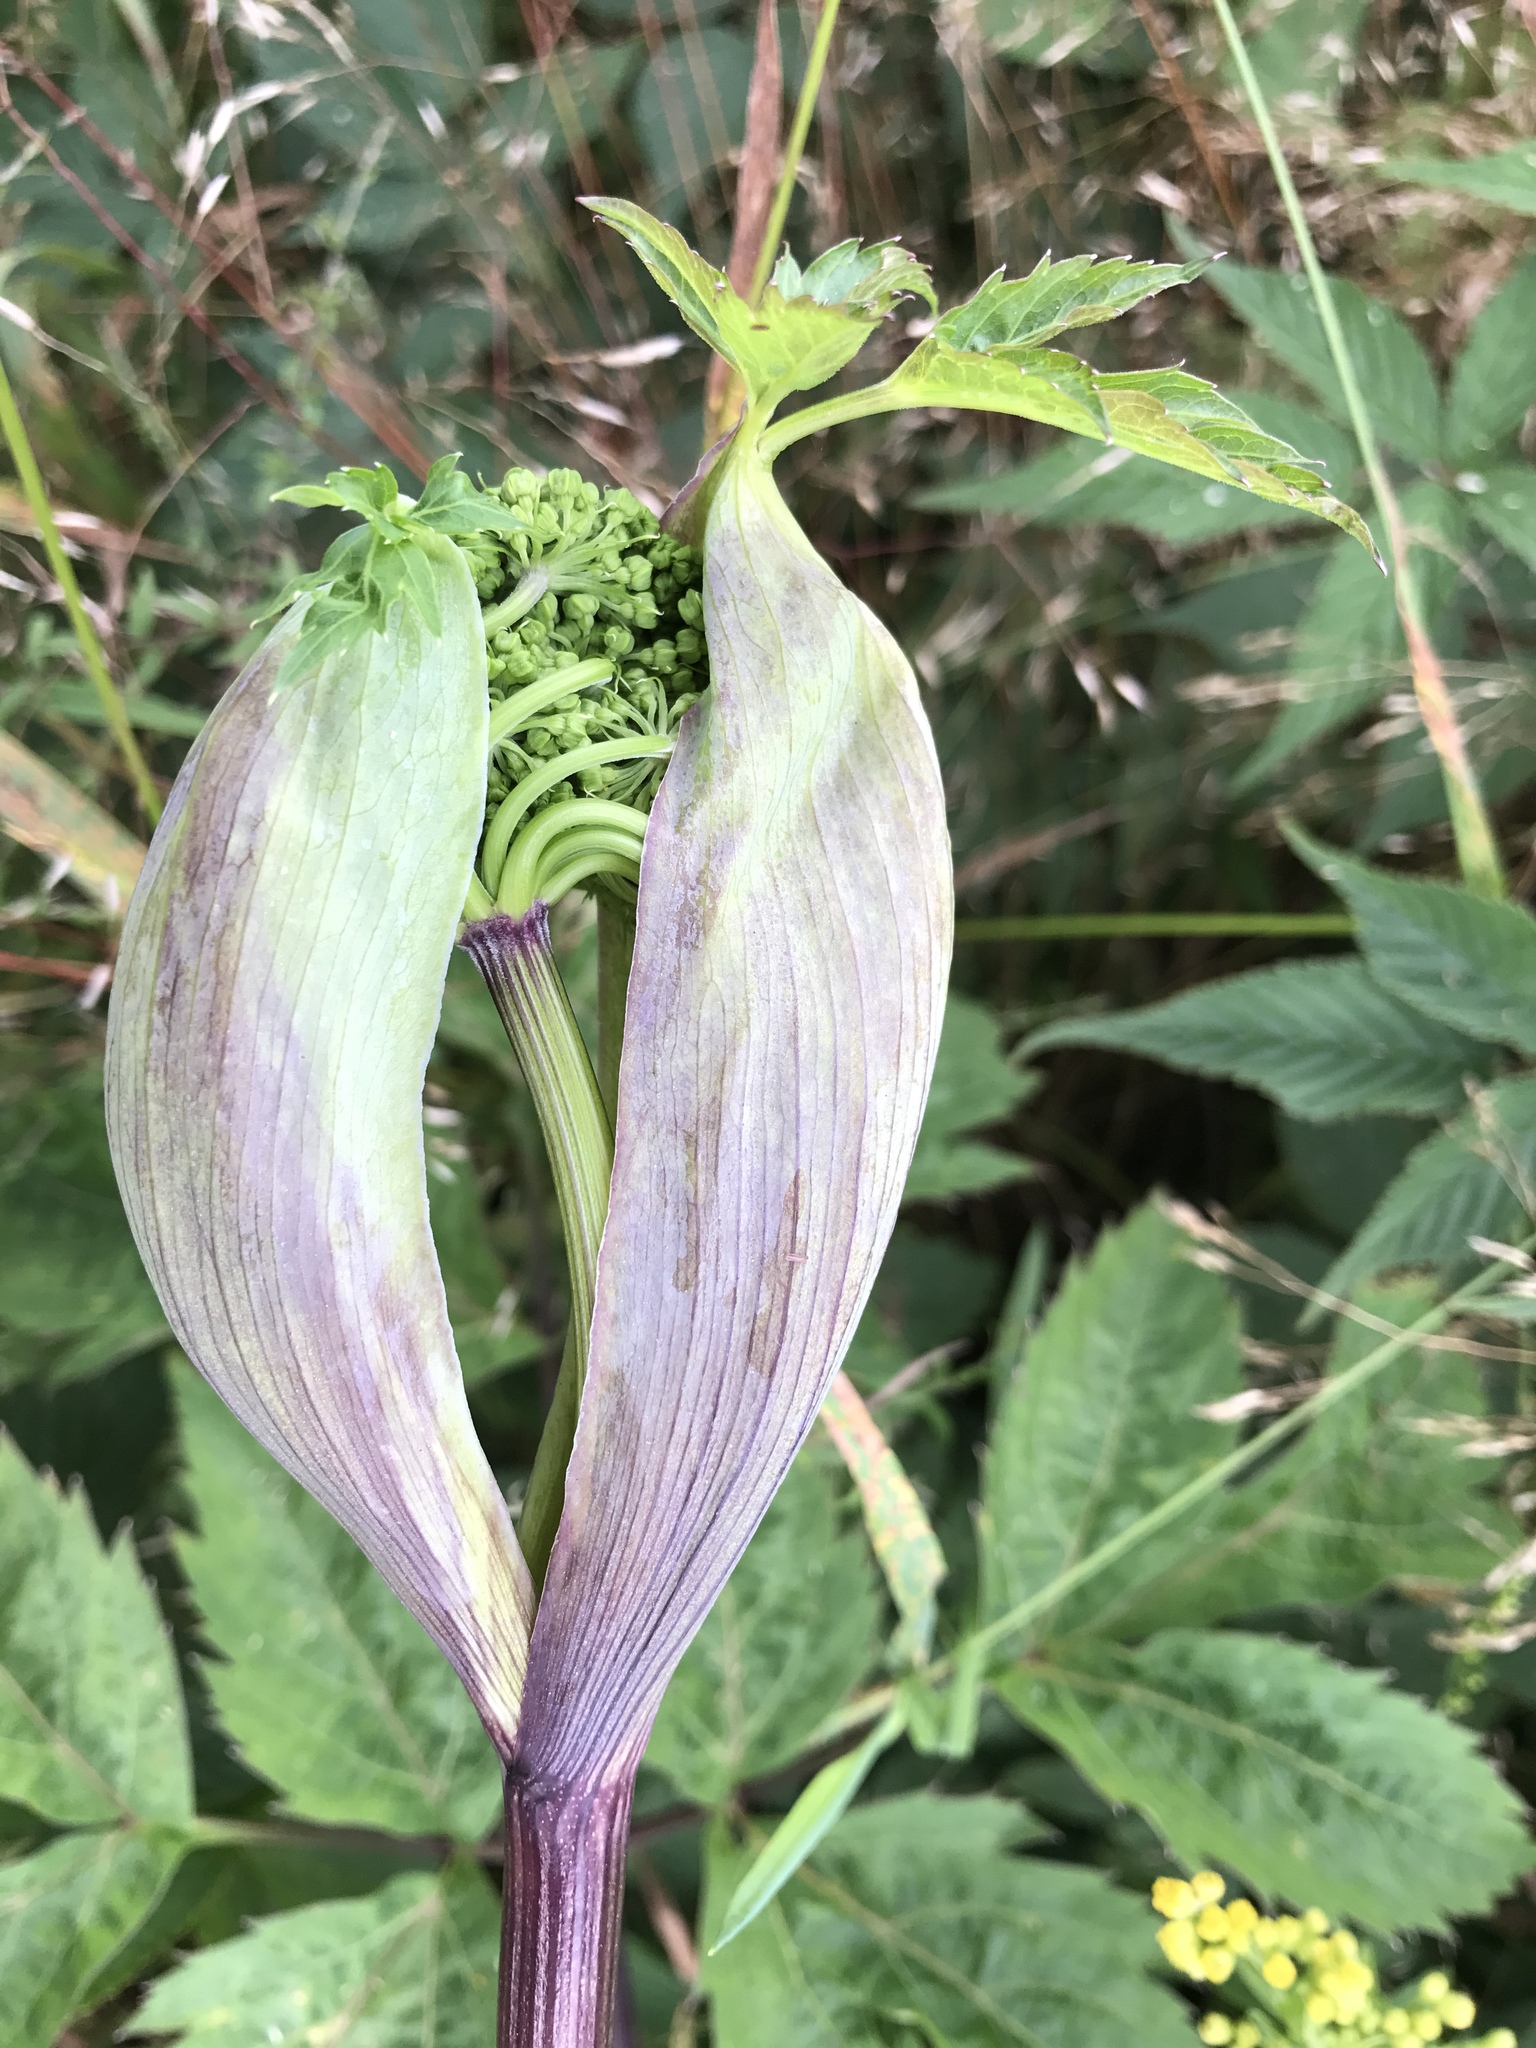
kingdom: Plantae
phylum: Tracheophyta
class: Magnoliopsida
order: Apiales
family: Apiaceae
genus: Angelica
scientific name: Angelica triquinata
